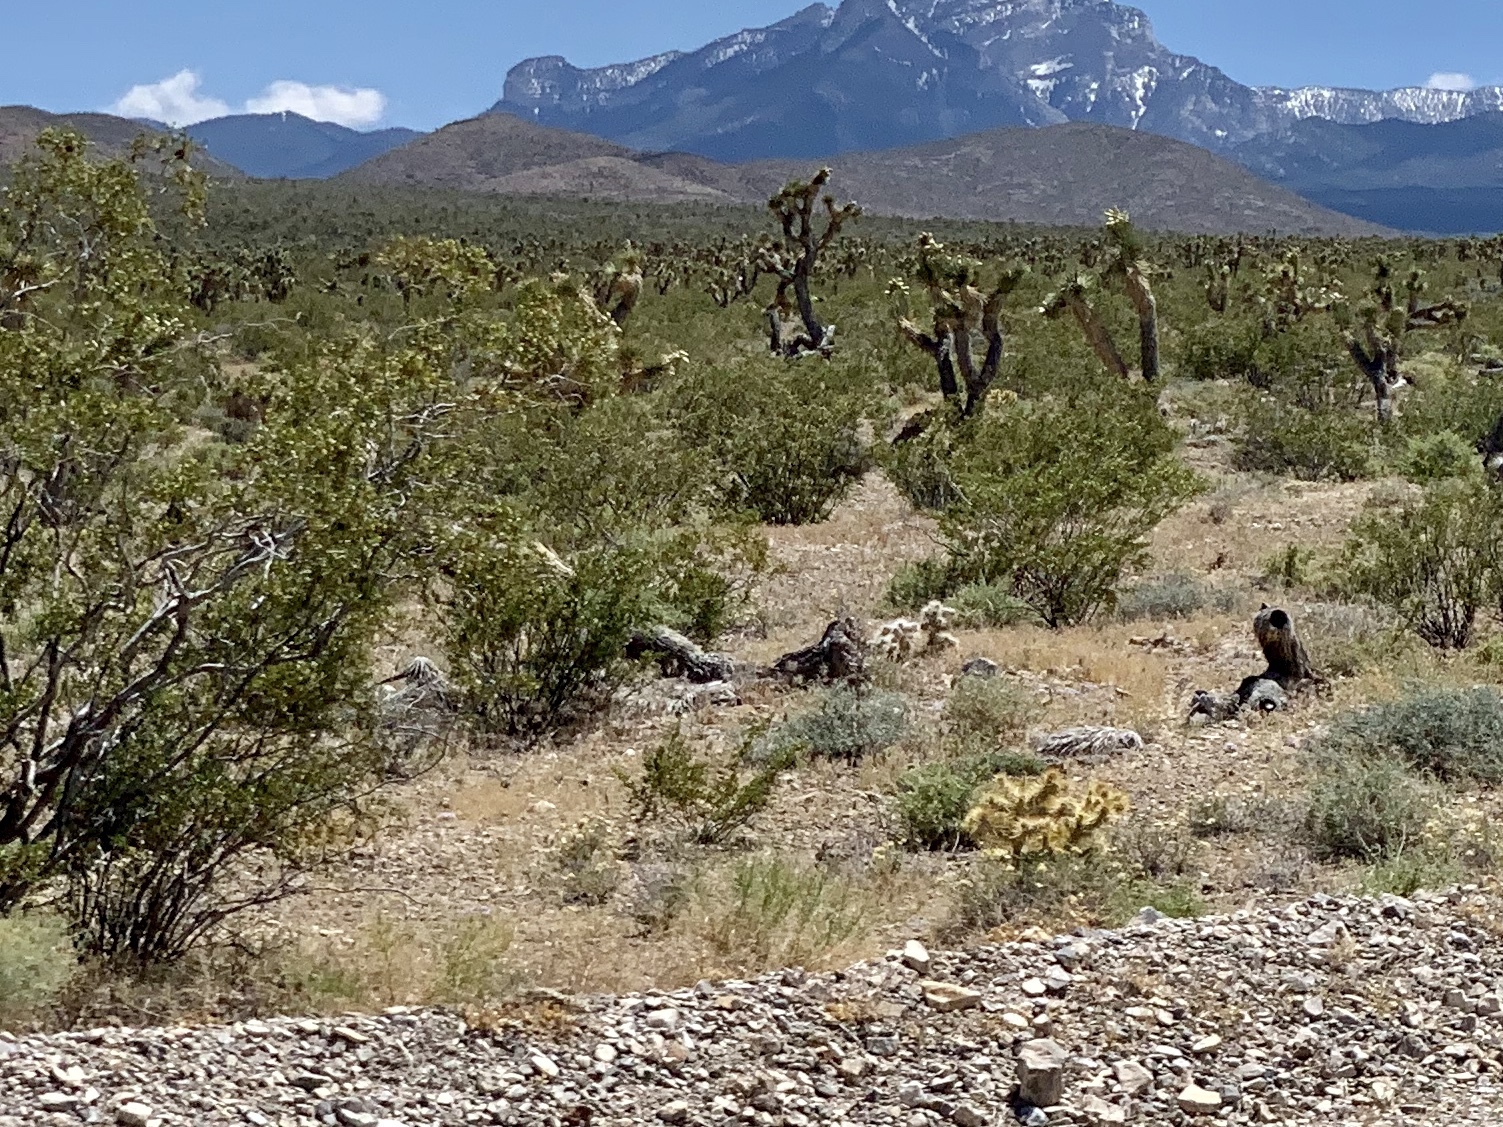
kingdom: Plantae
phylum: Tracheophyta
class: Magnoliopsida
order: Zygophyllales
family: Zygophyllaceae
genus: Larrea
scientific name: Larrea tridentata
